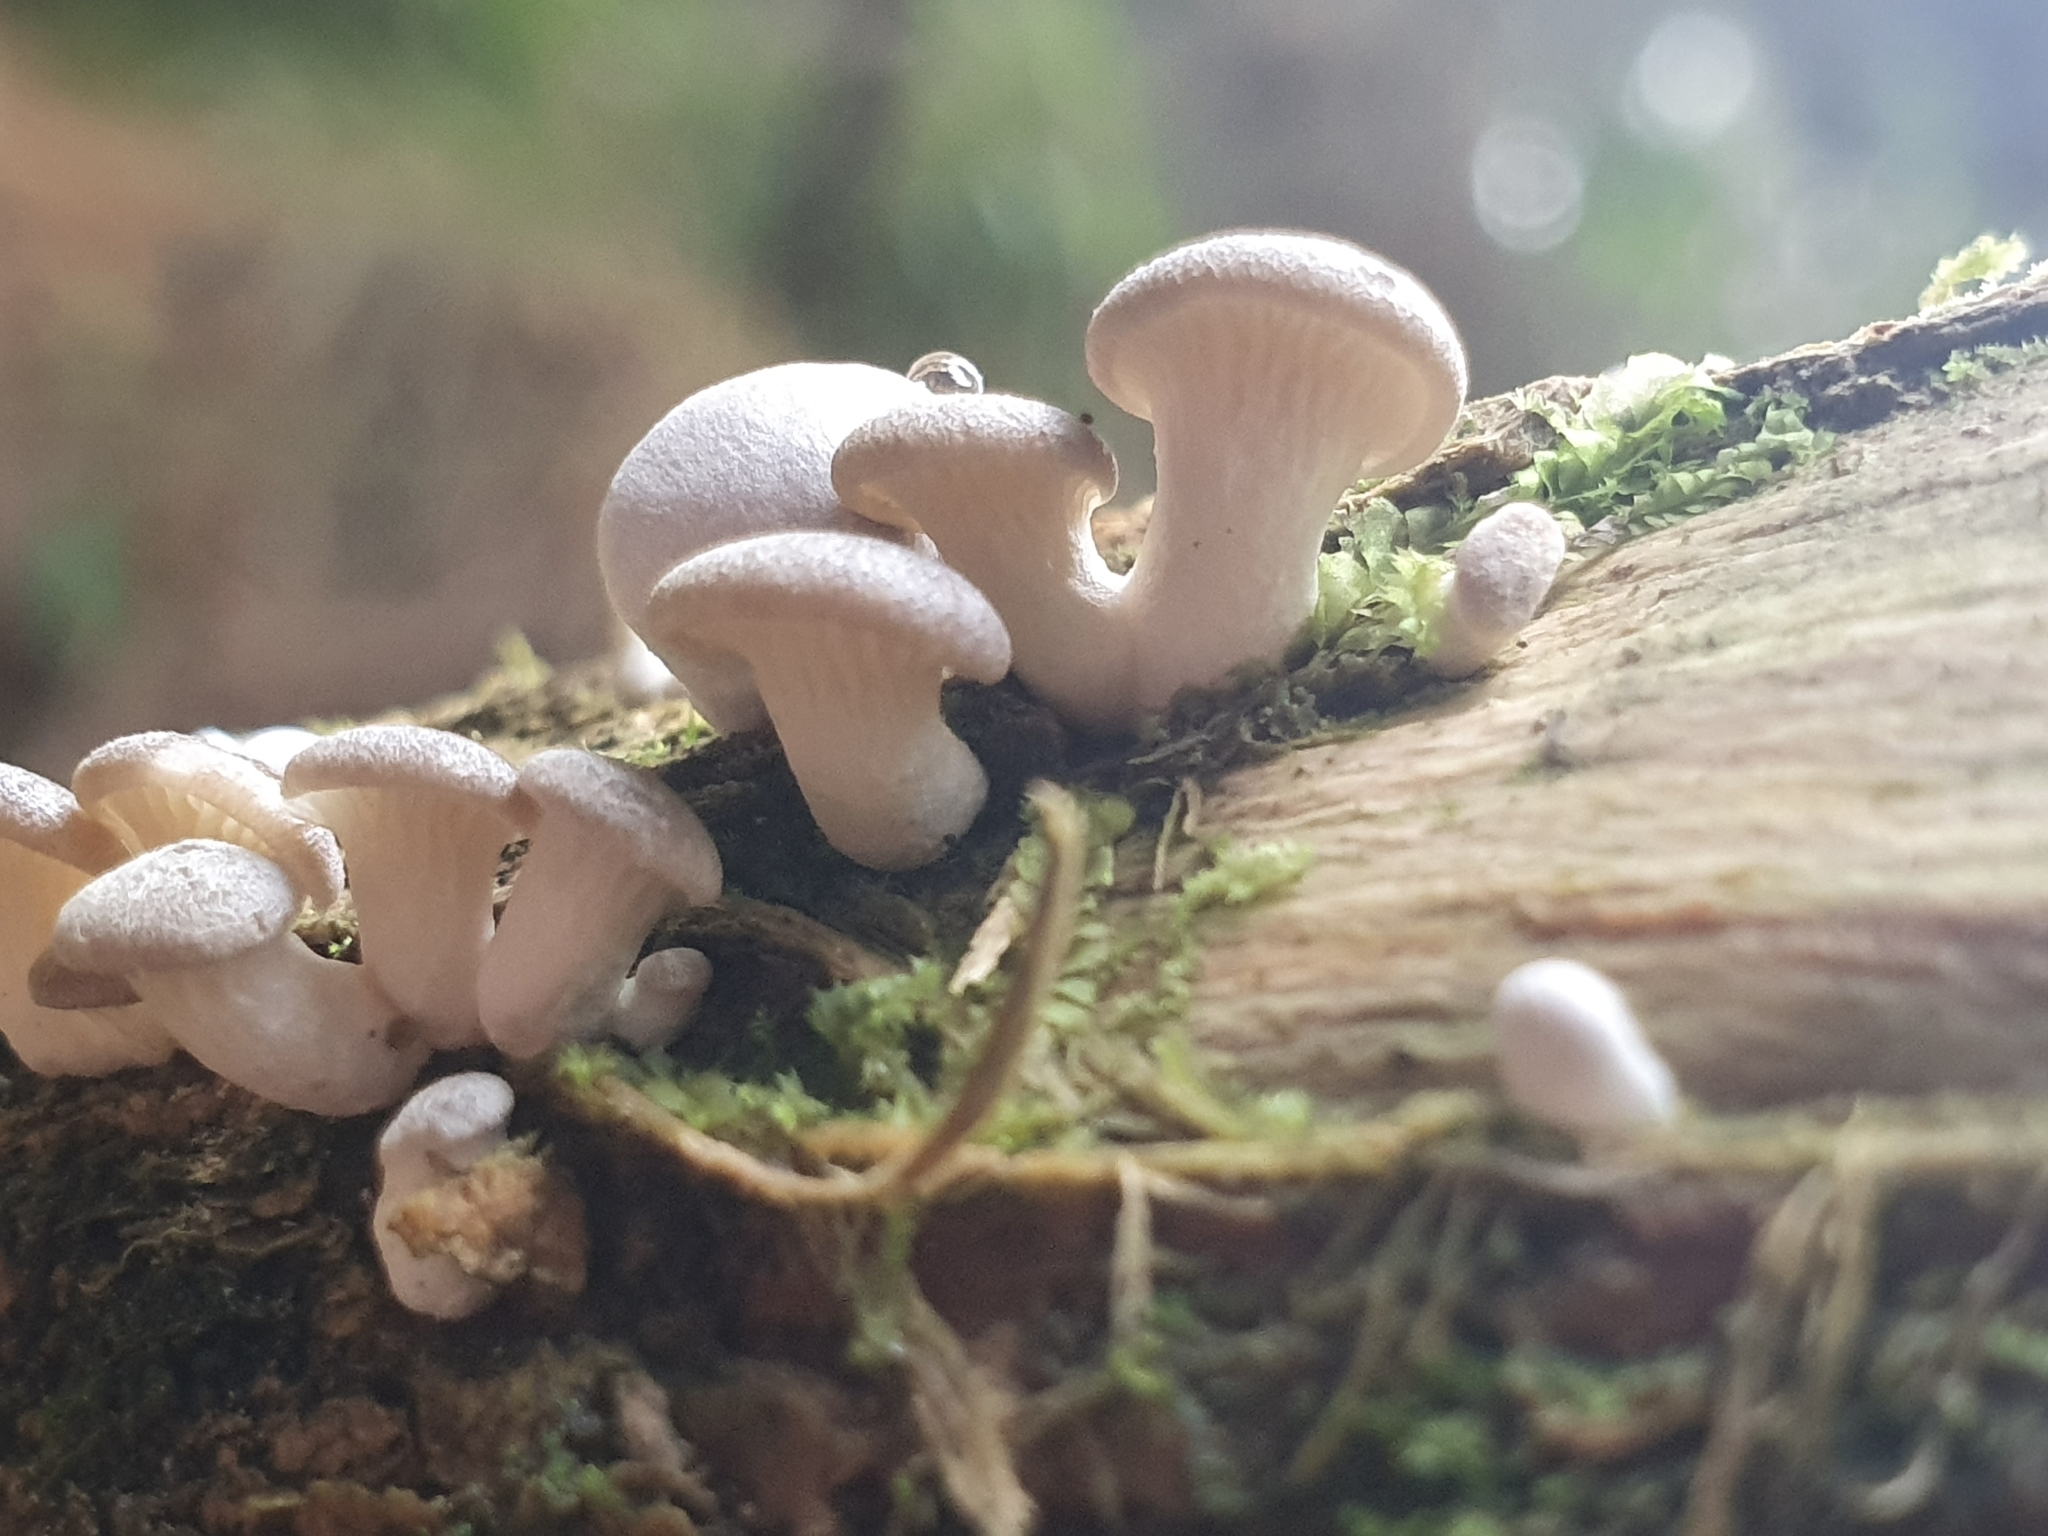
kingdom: Fungi
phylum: Basidiomycota
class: Agaricomycetes
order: Agaricales
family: Pleurotaceae
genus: Pleurotus
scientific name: Pleurotus purpureo-olivaceus
